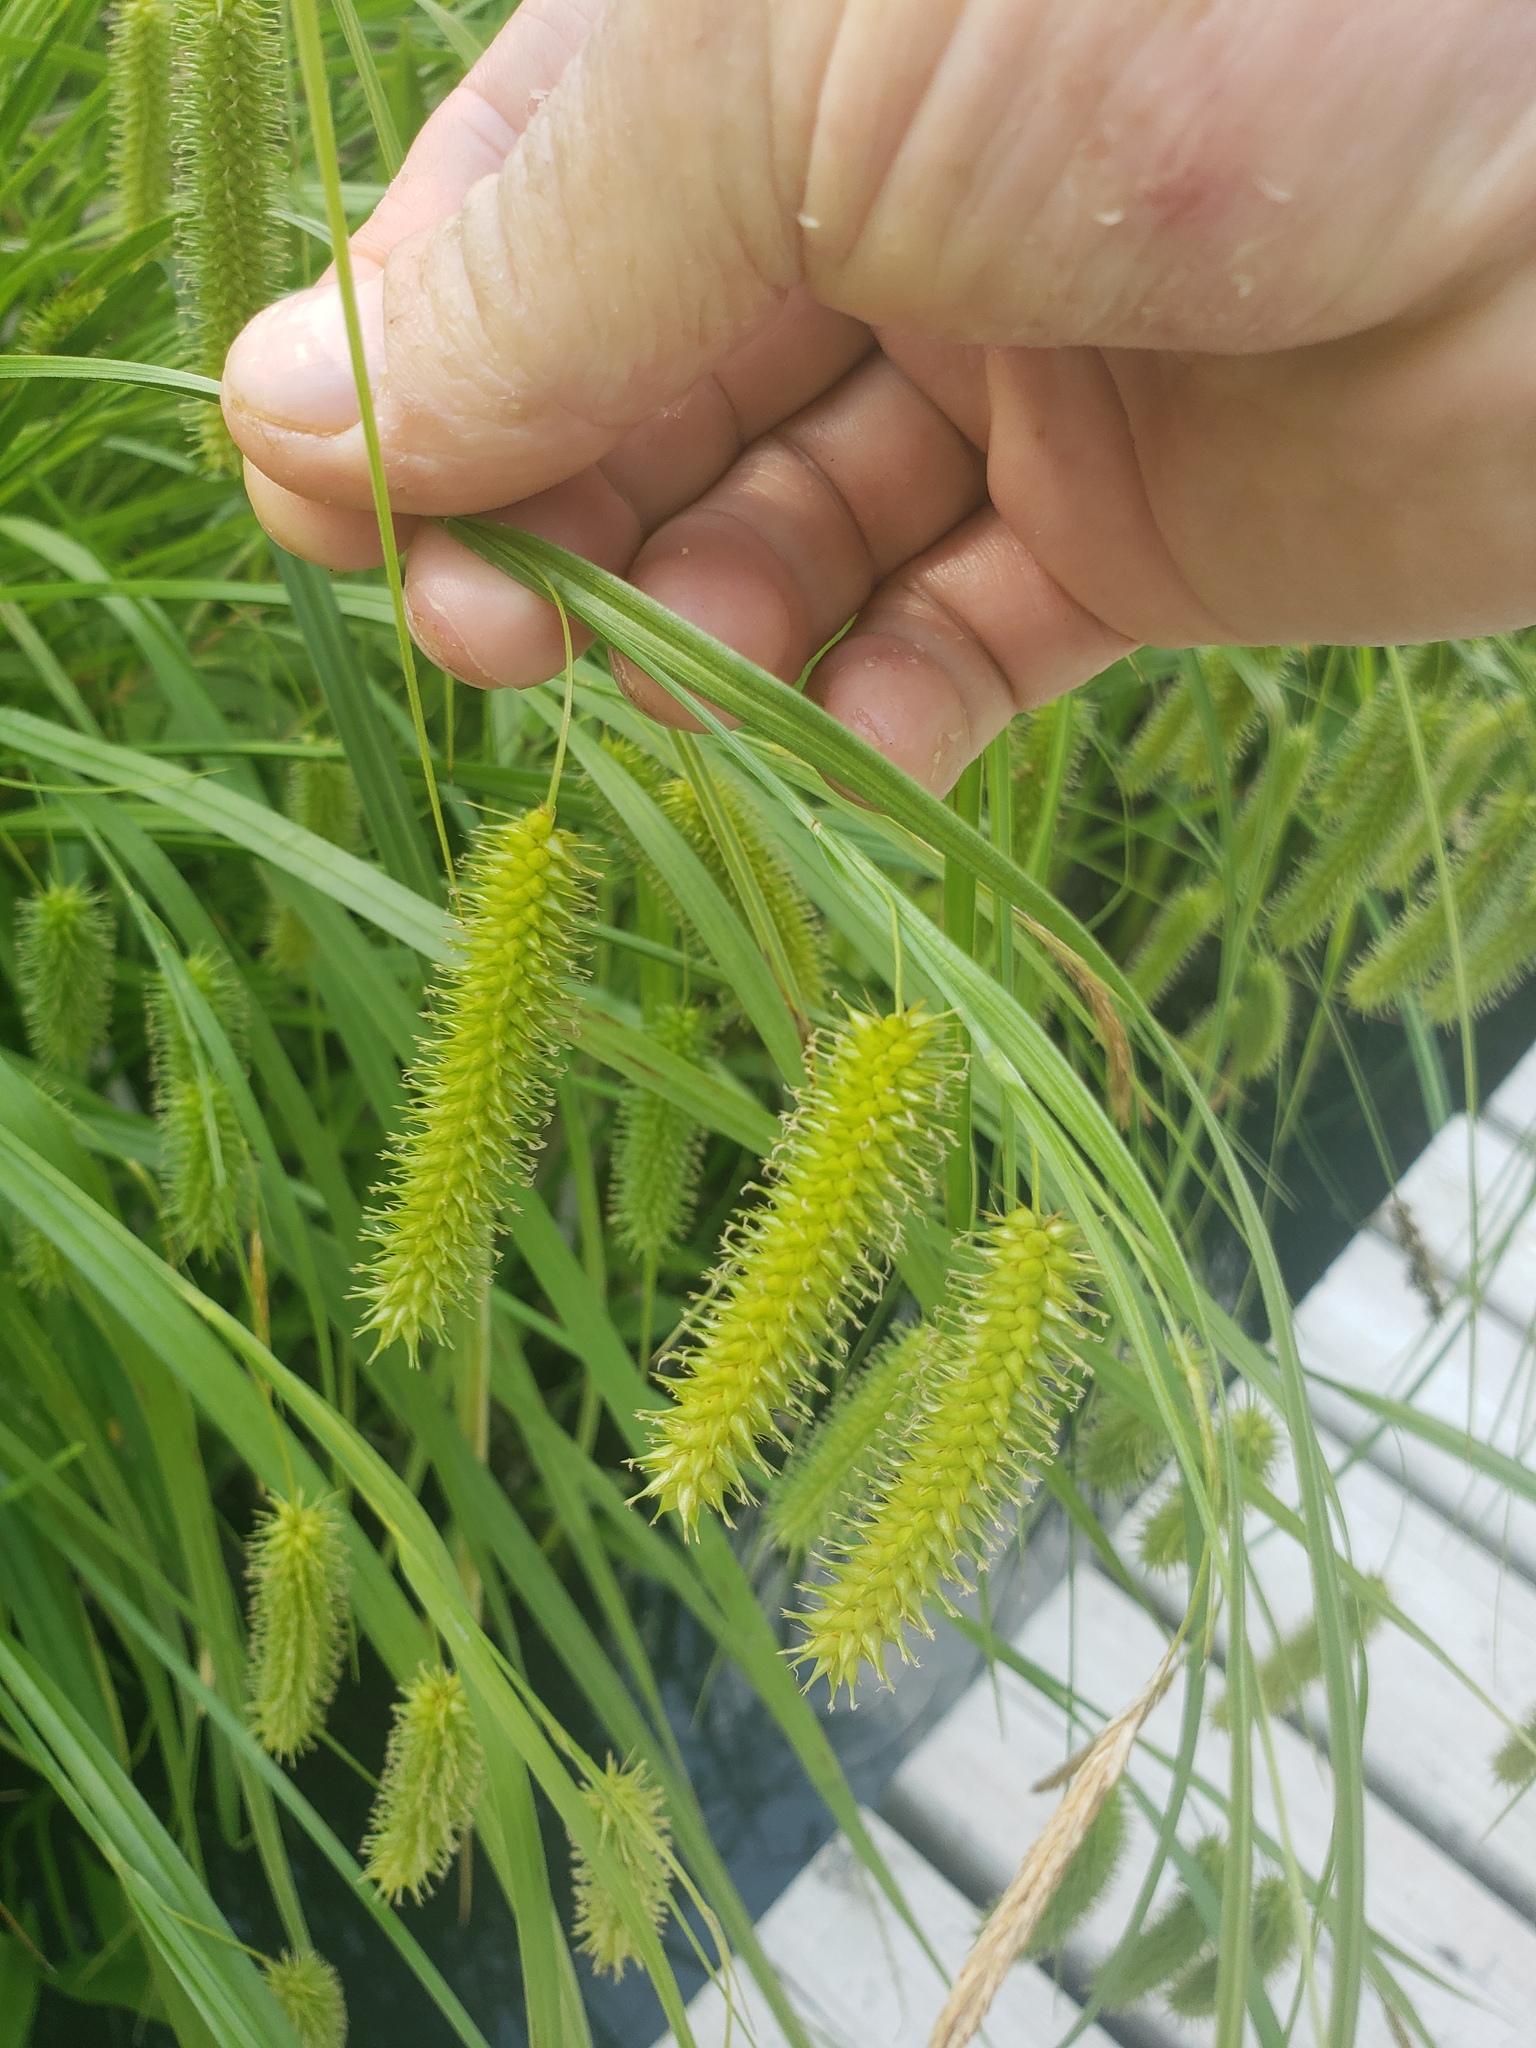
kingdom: Plantae
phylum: Tracheophyta
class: Liliopsida
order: Poales
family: Cyperaceae
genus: Carex
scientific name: Carex pseudocyperus
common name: Cyperus sedge
